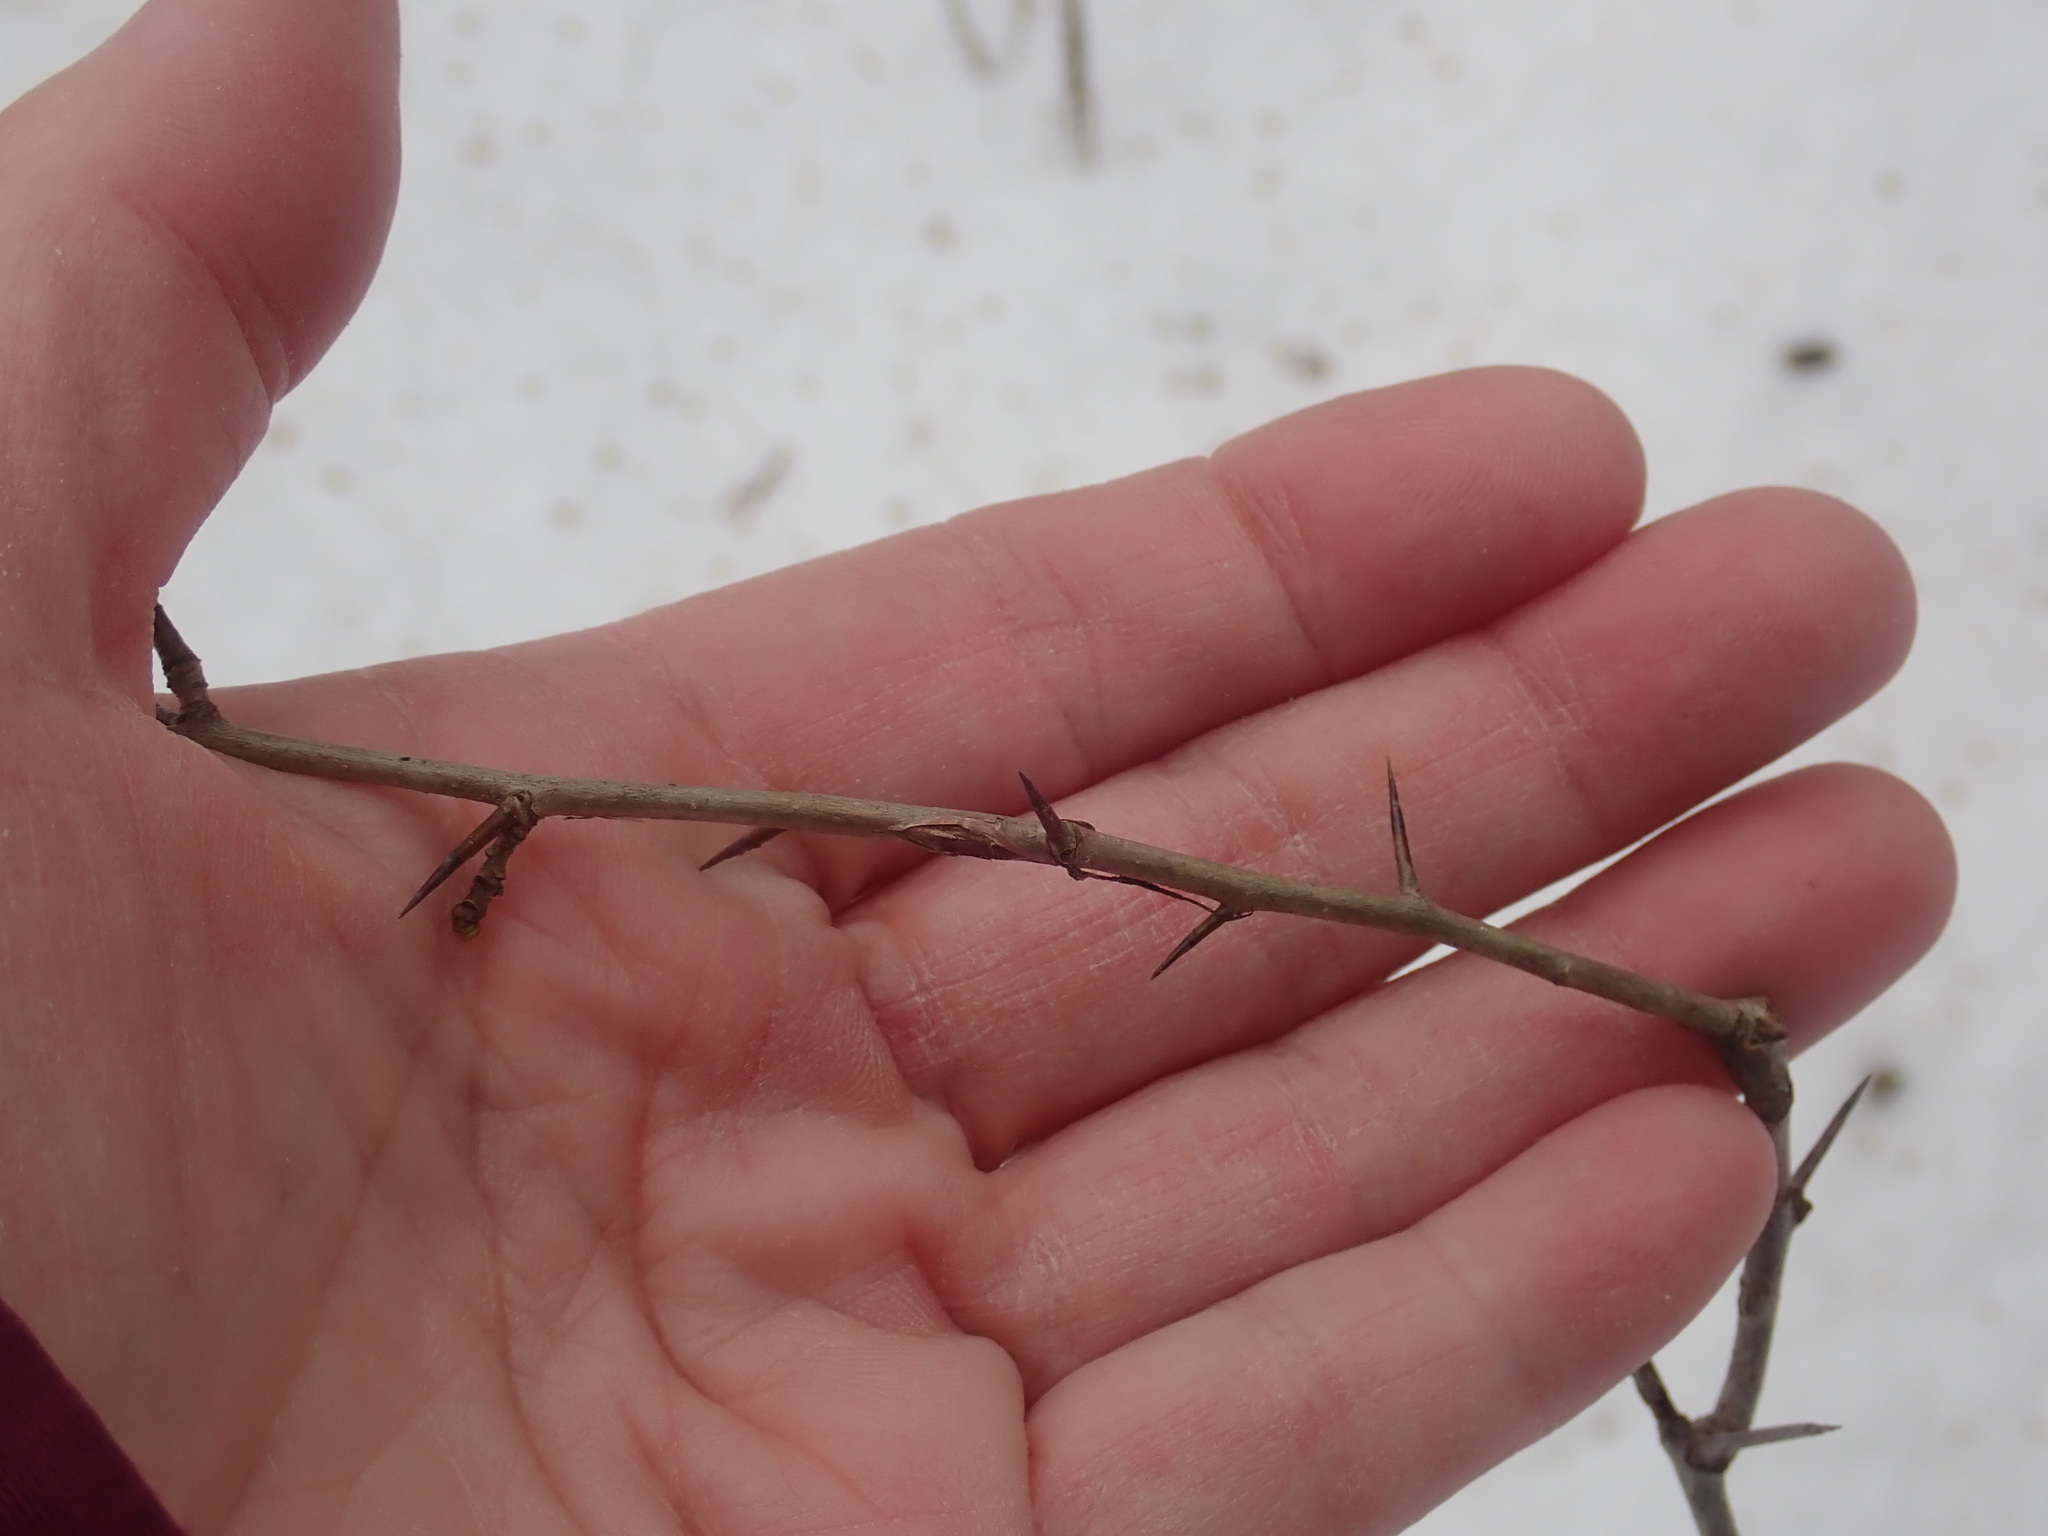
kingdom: Plantae
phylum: Tracheophyta
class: Magnoliopsida
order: Rosales
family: Rosaceae
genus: Crataegus
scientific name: Crataegus
